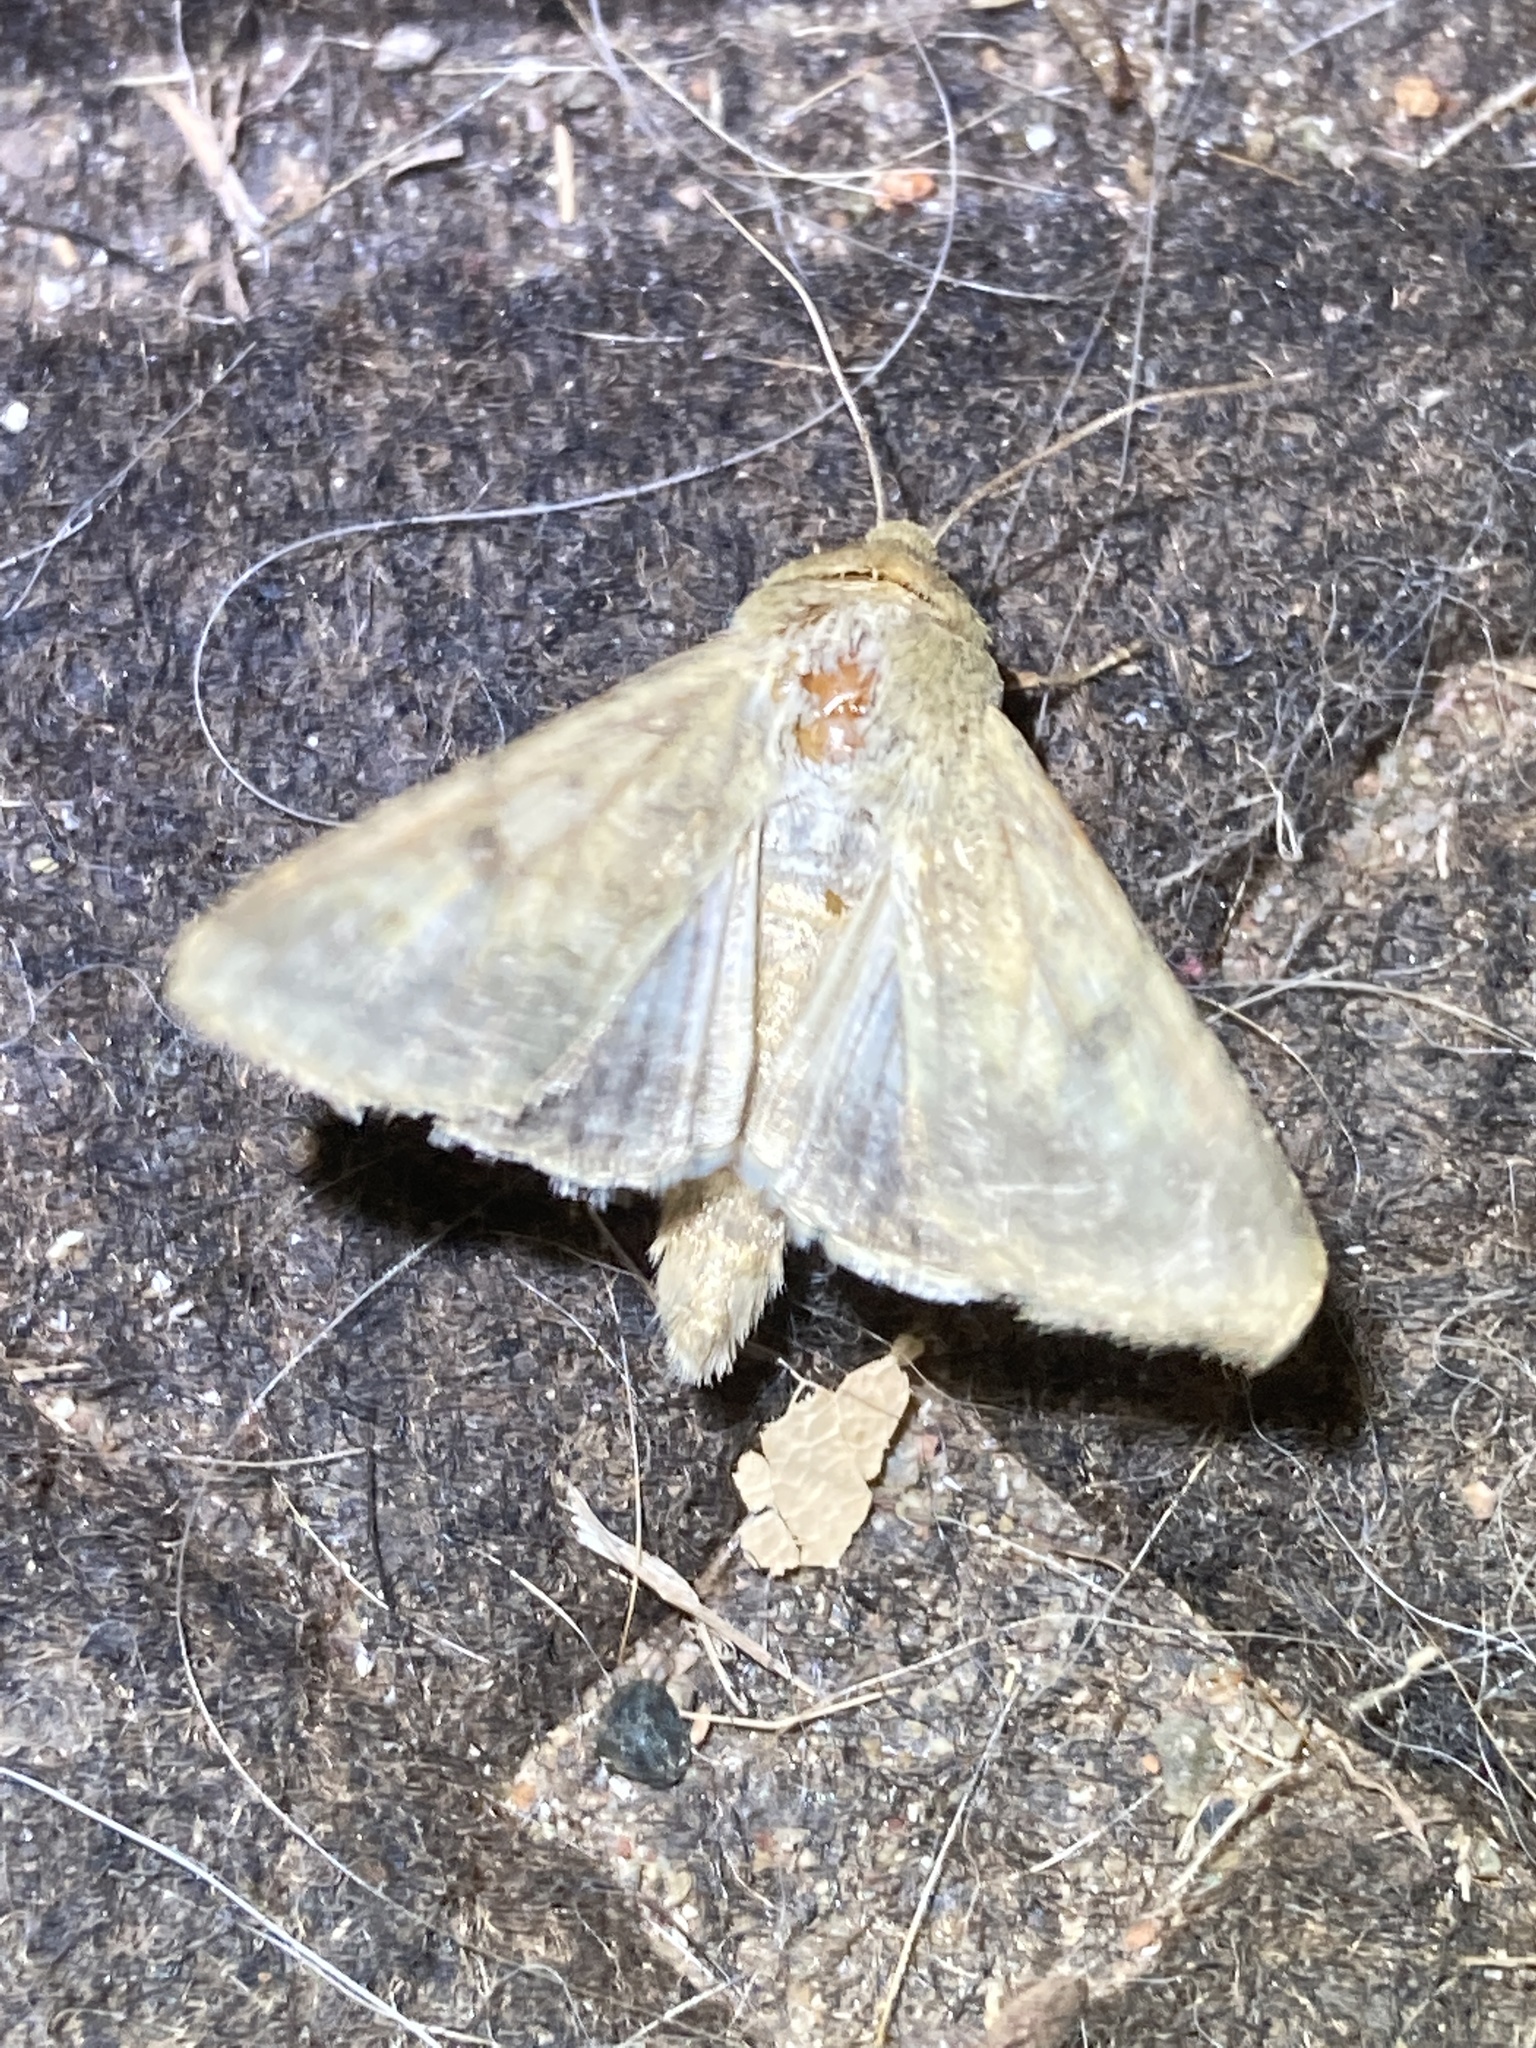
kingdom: Animalia
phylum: Arthropoda
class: Insecta
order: Lepidoptera
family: Noctuidae
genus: Helicoverpa
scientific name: Helicoverpa zea
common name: Bollworm
